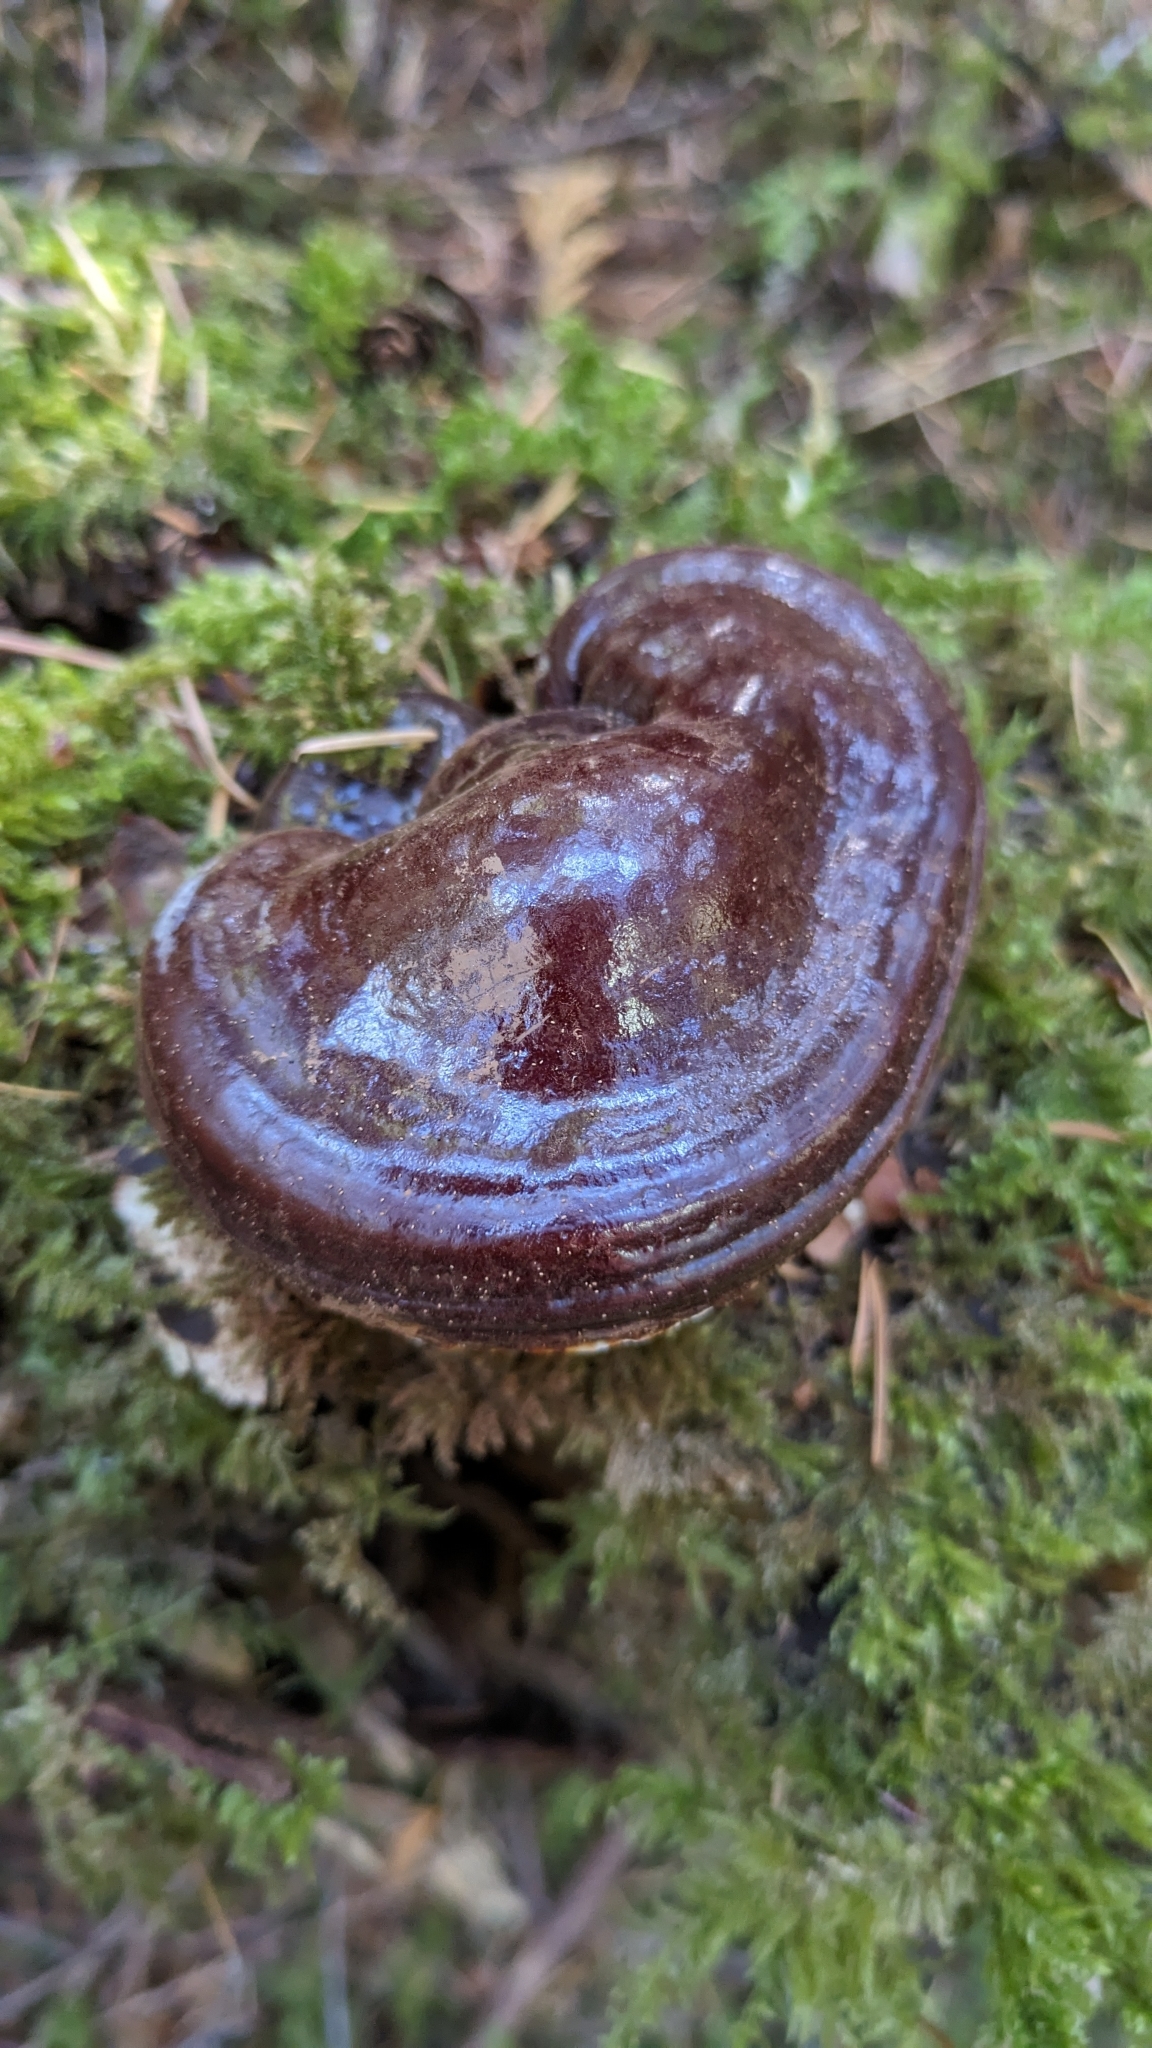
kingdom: Fungi
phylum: Basidiomycota
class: Agaricomycetes
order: Polyporales
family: Polyporaceae
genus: Ganoderma
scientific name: Ganoderma oregonense
